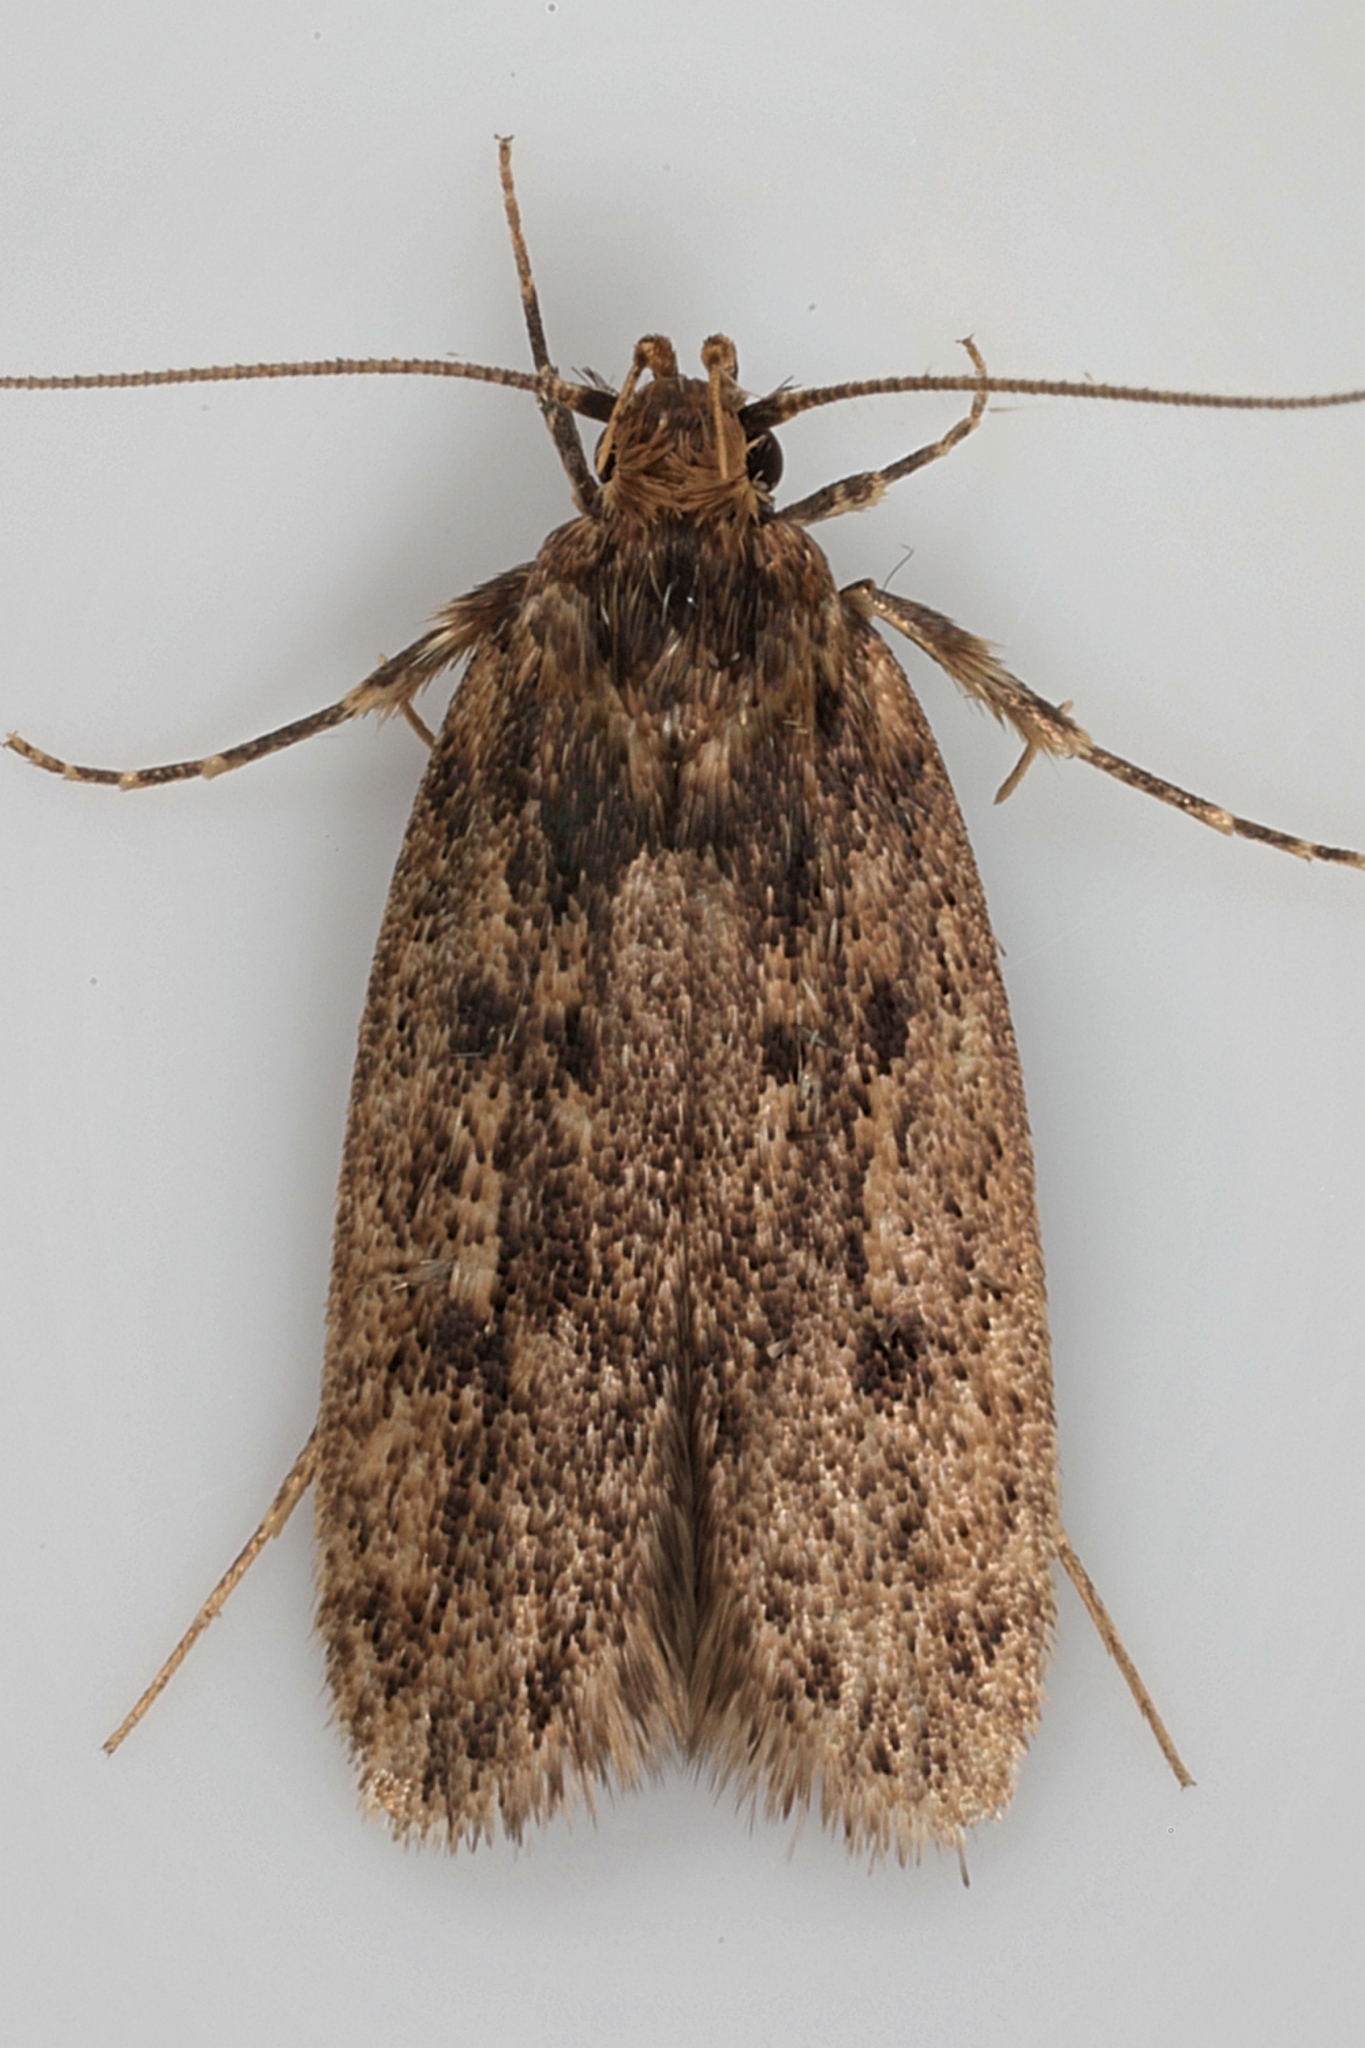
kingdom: Animalia
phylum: Arthropoda
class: Insecta
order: Lepidoptera
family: Oecophoridae
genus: Hofmannophila
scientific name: Hofmannophila pseudospretella
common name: Brown house moth
